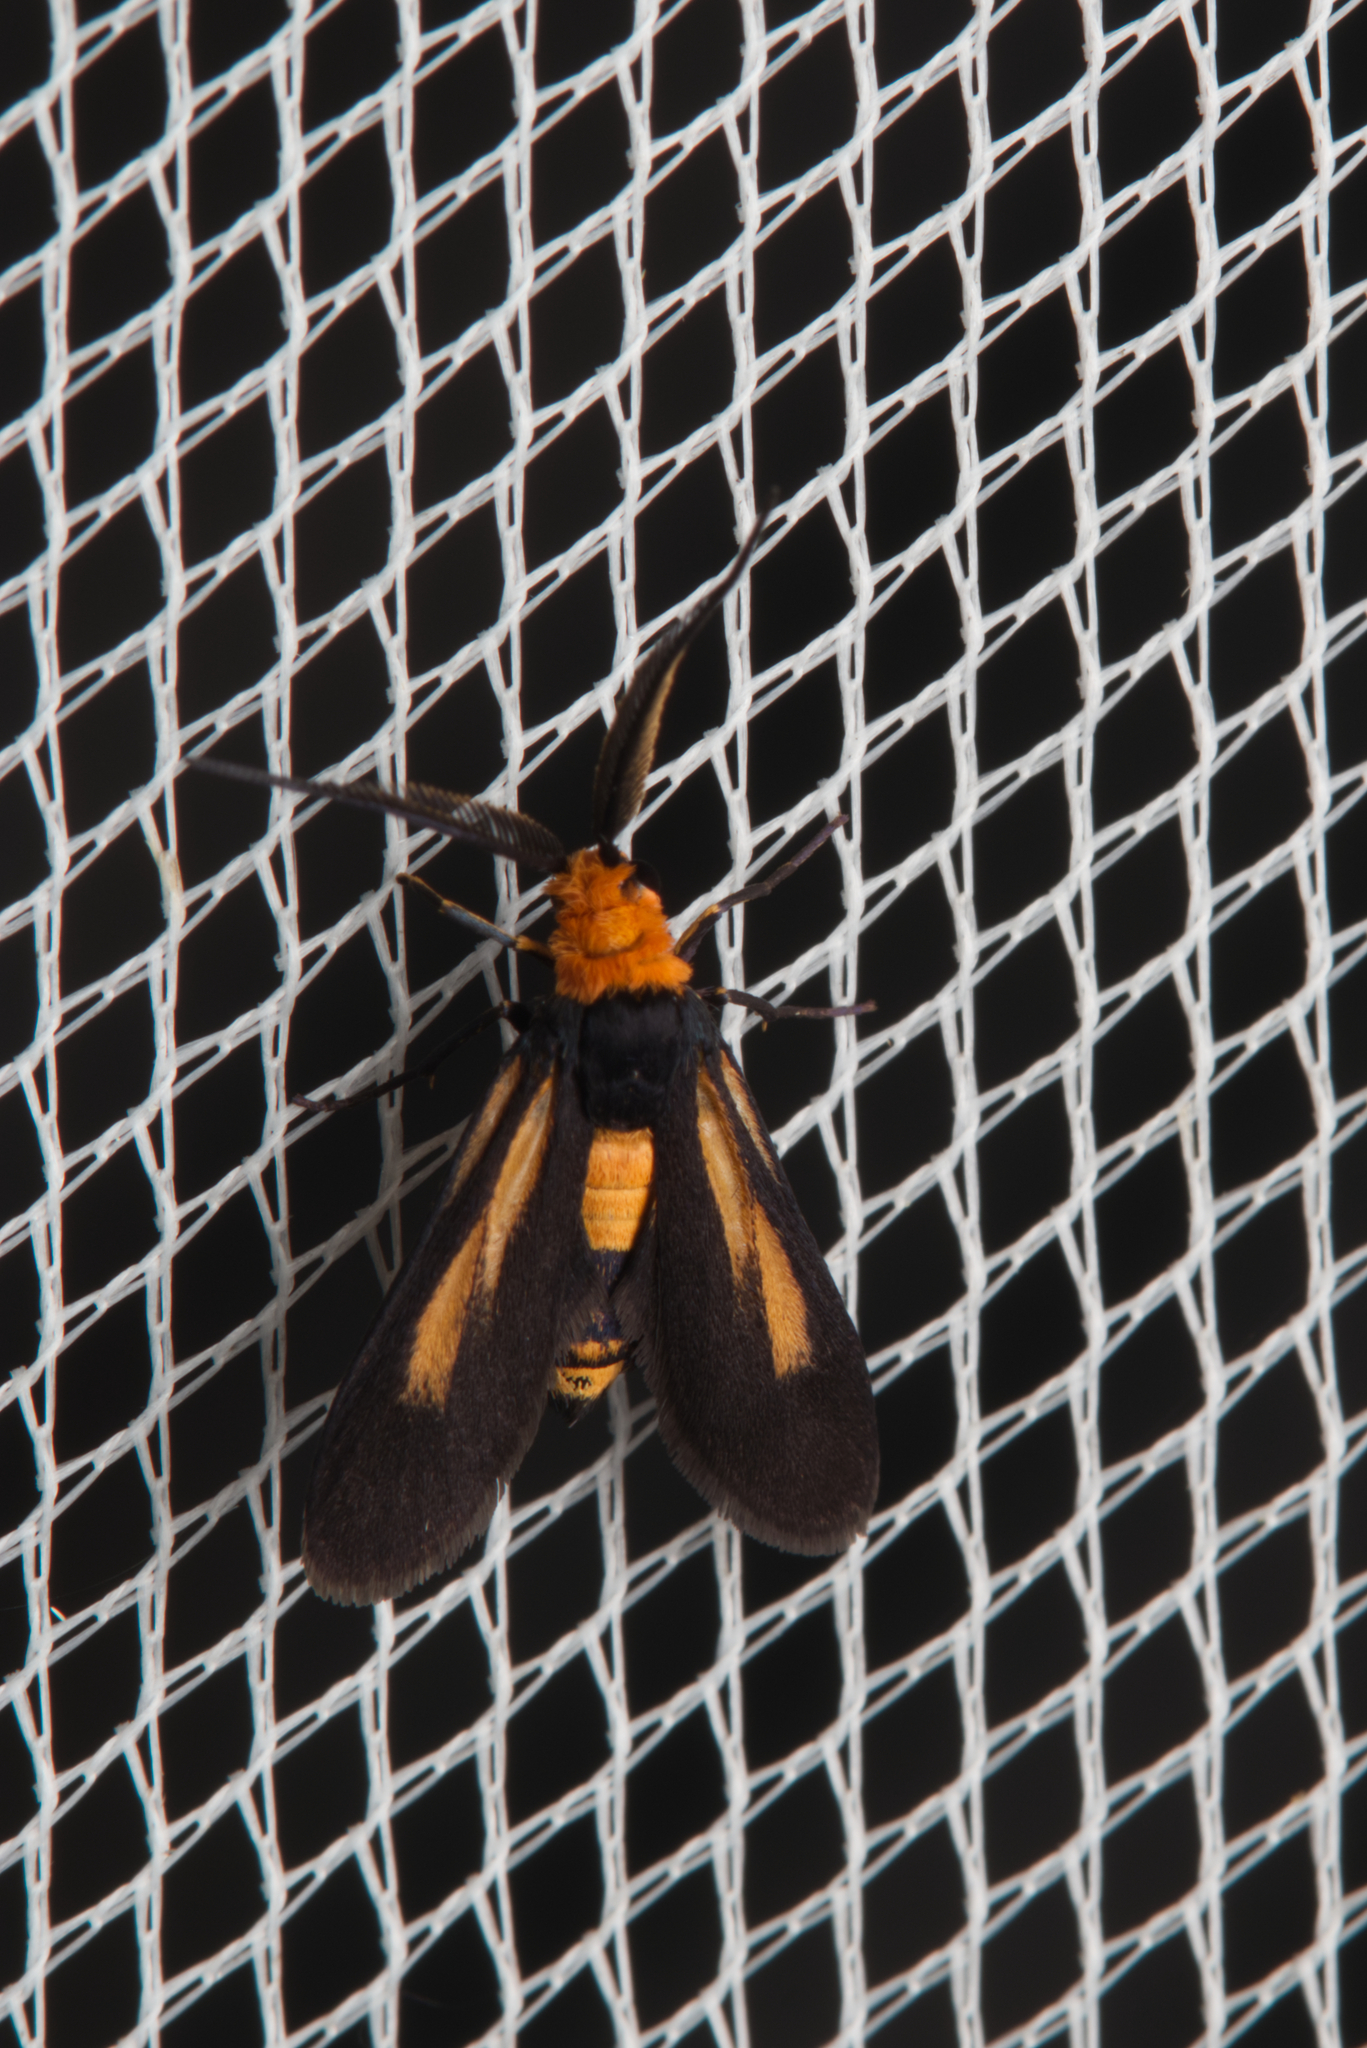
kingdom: Animalia
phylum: Arthropoda
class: Insecta
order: Lepidoptera
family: Zygaenidae
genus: Hestiochora
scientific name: Hestiochora xanthocoma
